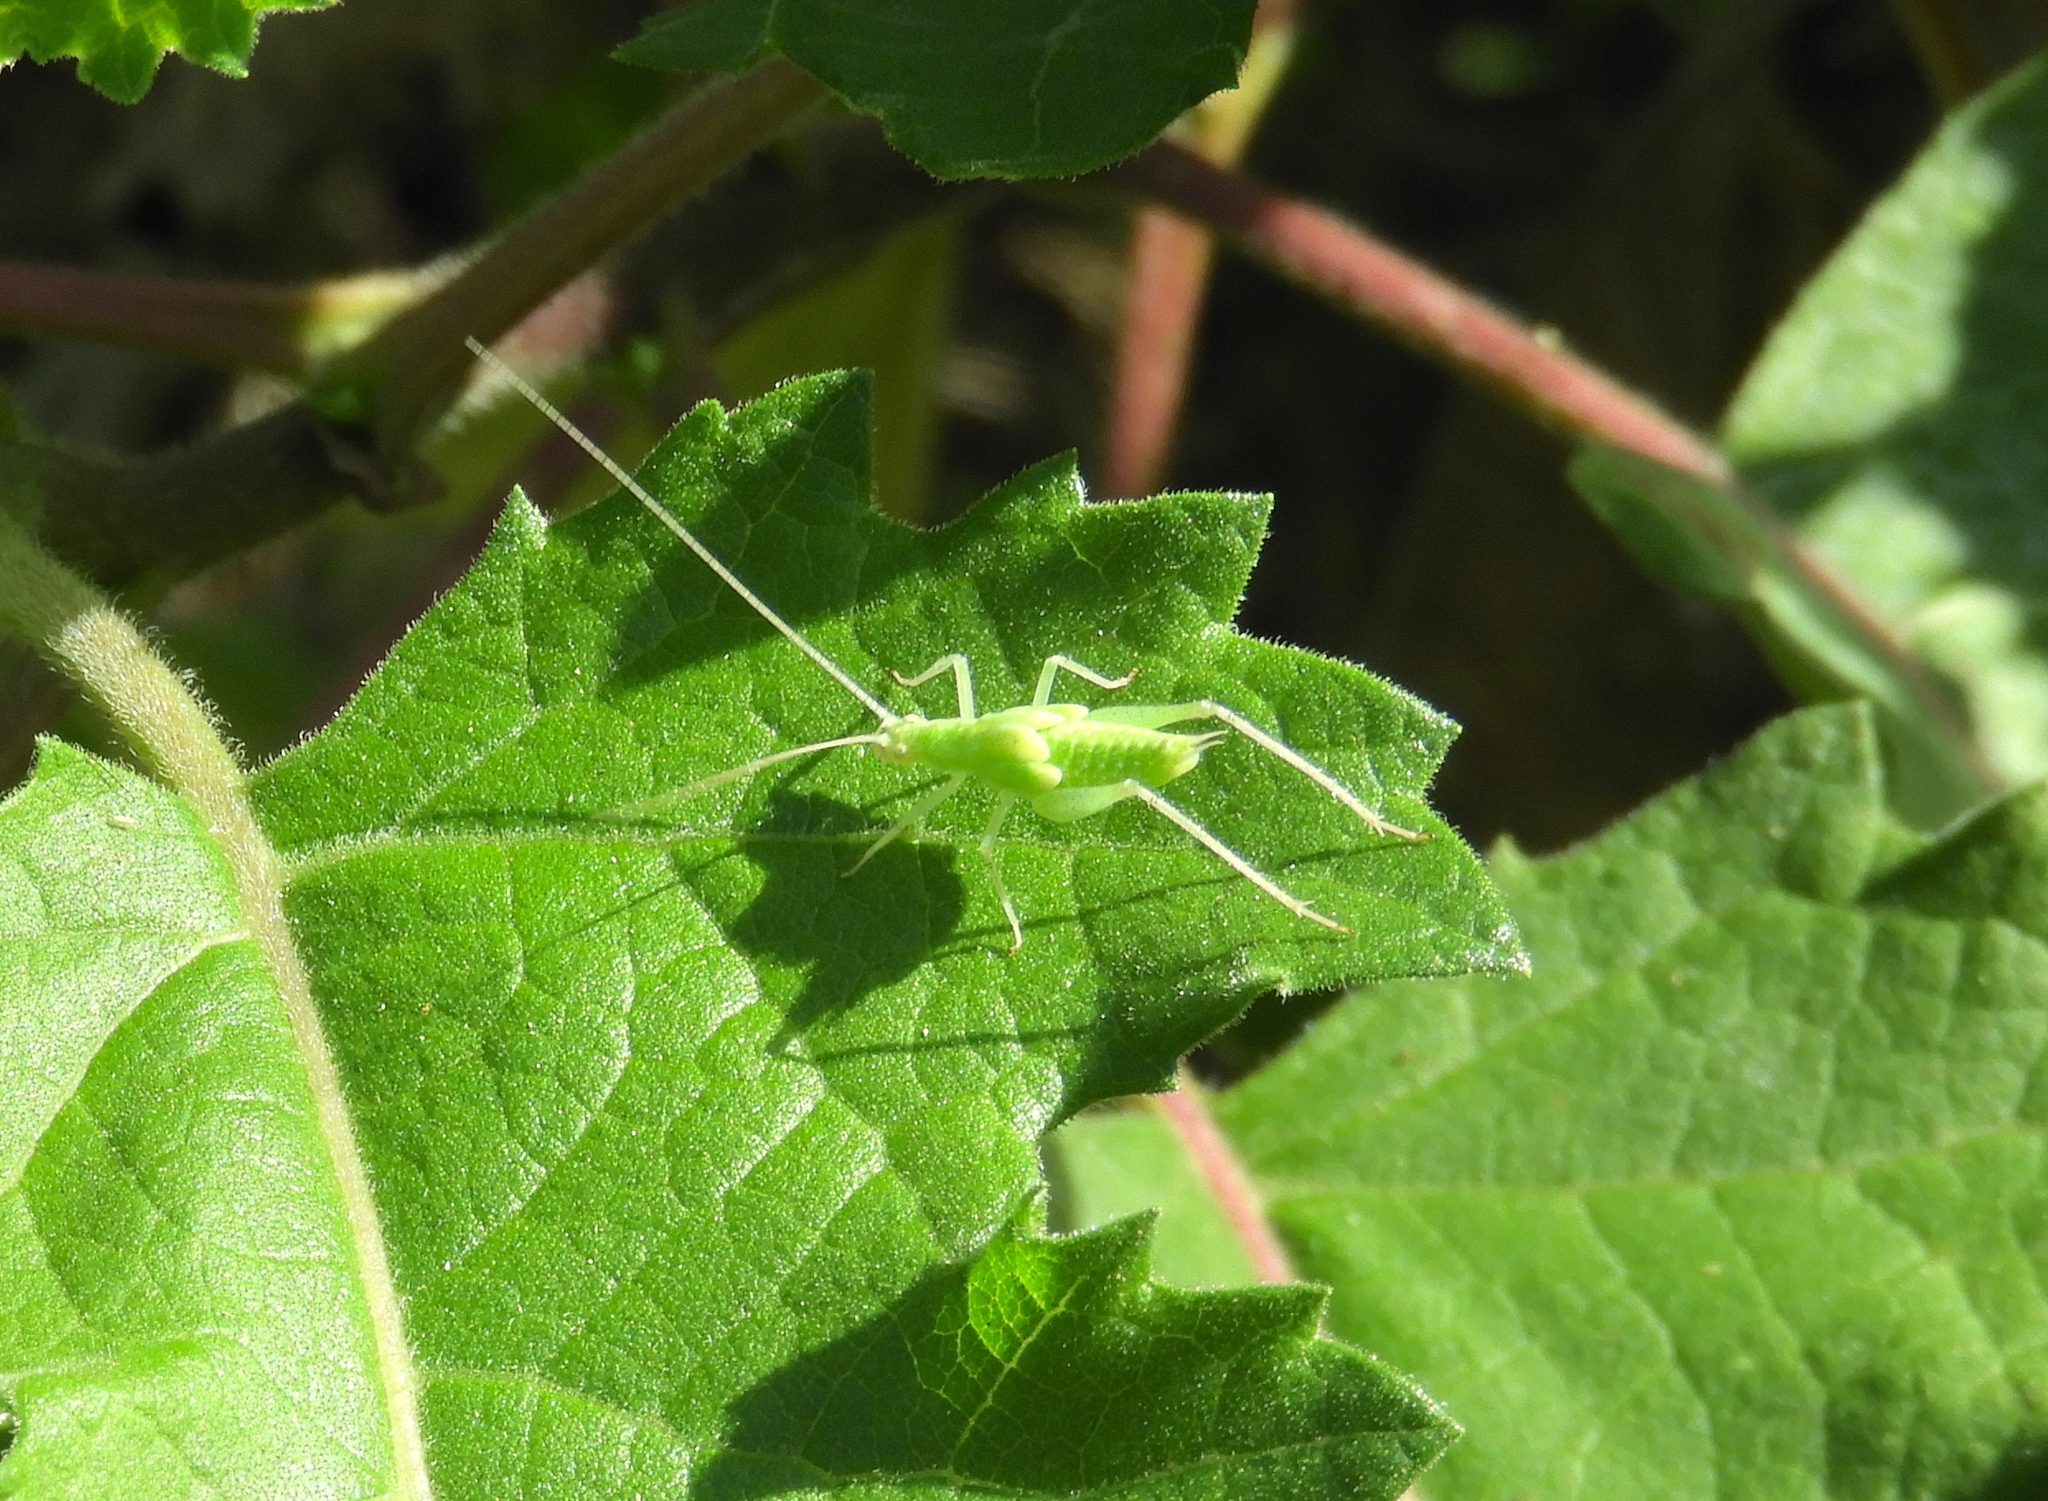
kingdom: Animalia
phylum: Arthropoda
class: Insecta
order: Orthoptera
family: Gryllidae
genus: Oecanthus
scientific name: Oecanthus
